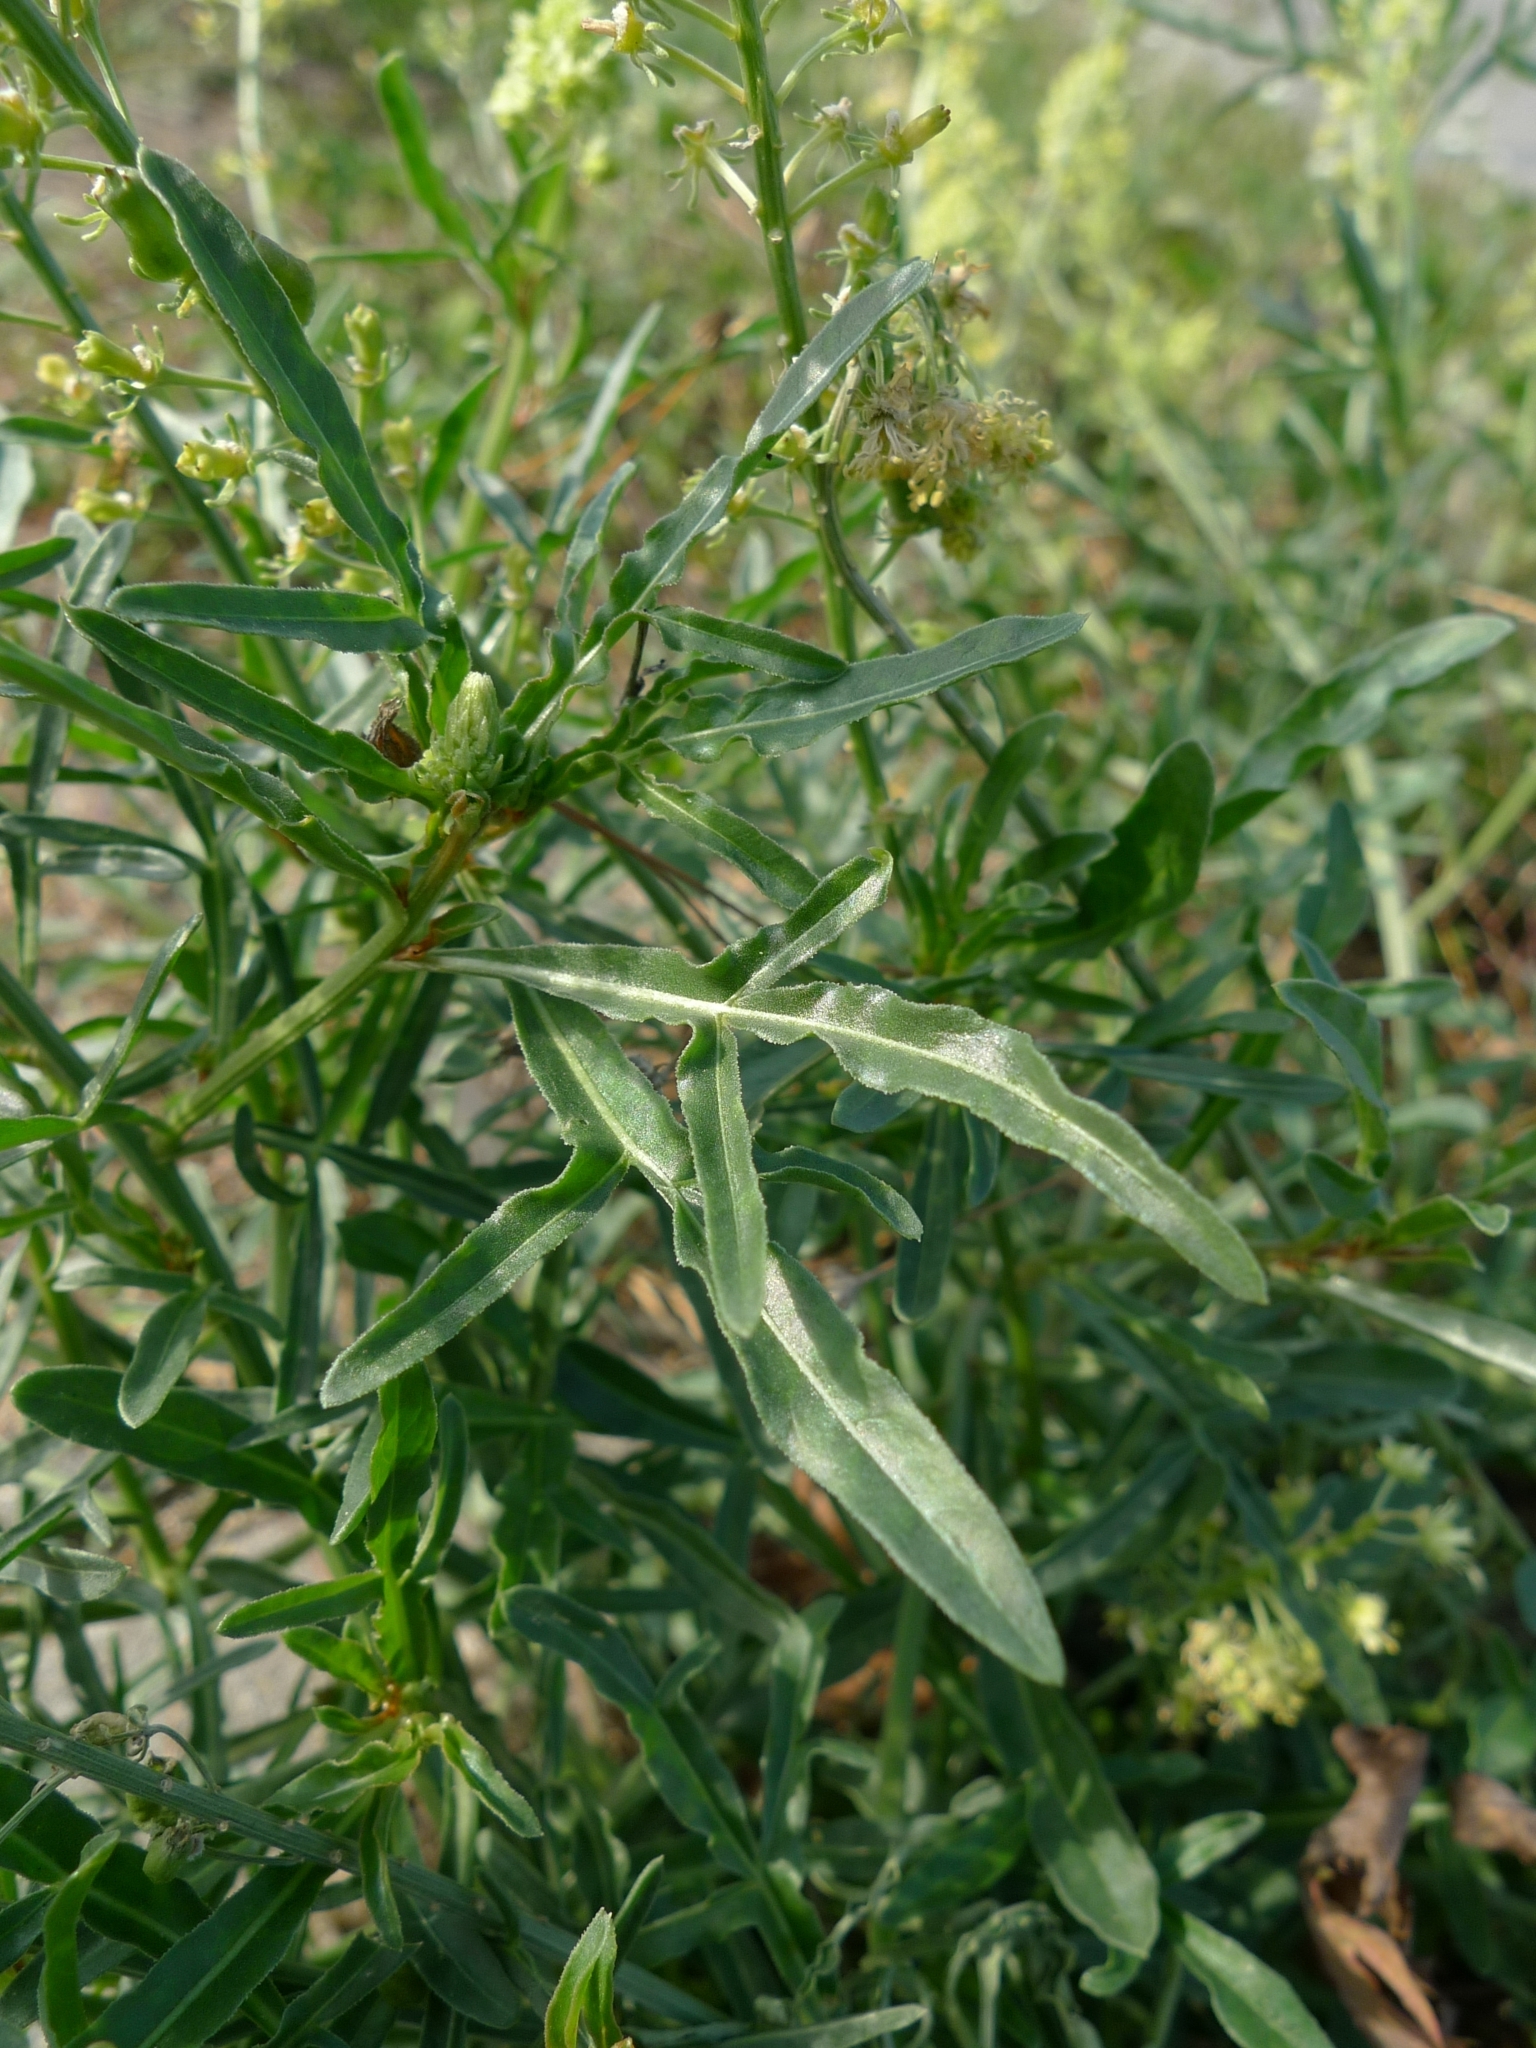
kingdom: Plantae
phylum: Tracheophyta
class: Magnoliopsida
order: Brassicales
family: Resedaceae
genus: Reseda
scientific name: Reseda lutea
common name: Wild mignonette
